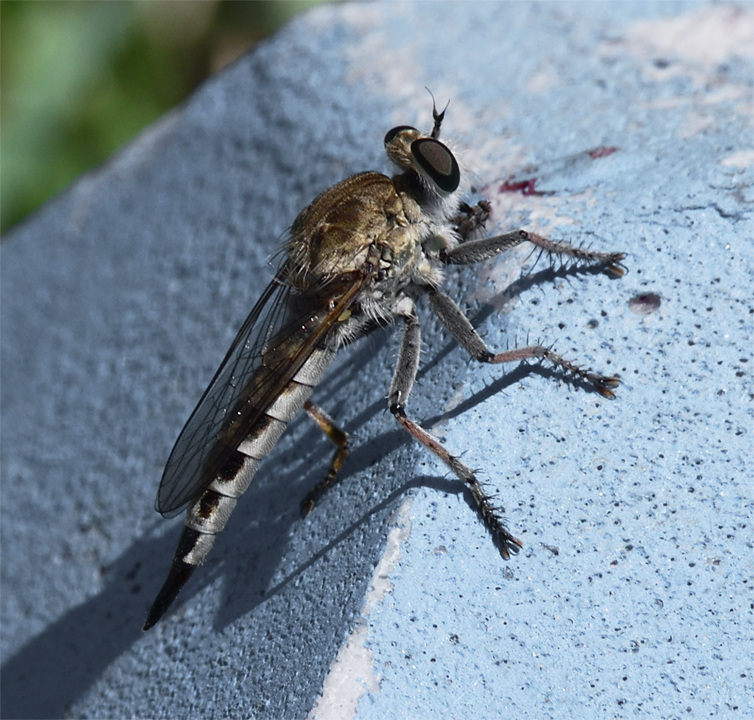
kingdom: Animalia
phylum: Arthropoda
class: Insecta
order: Diptera
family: Asilidae
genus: Efferia
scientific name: Efferia albibarbis
